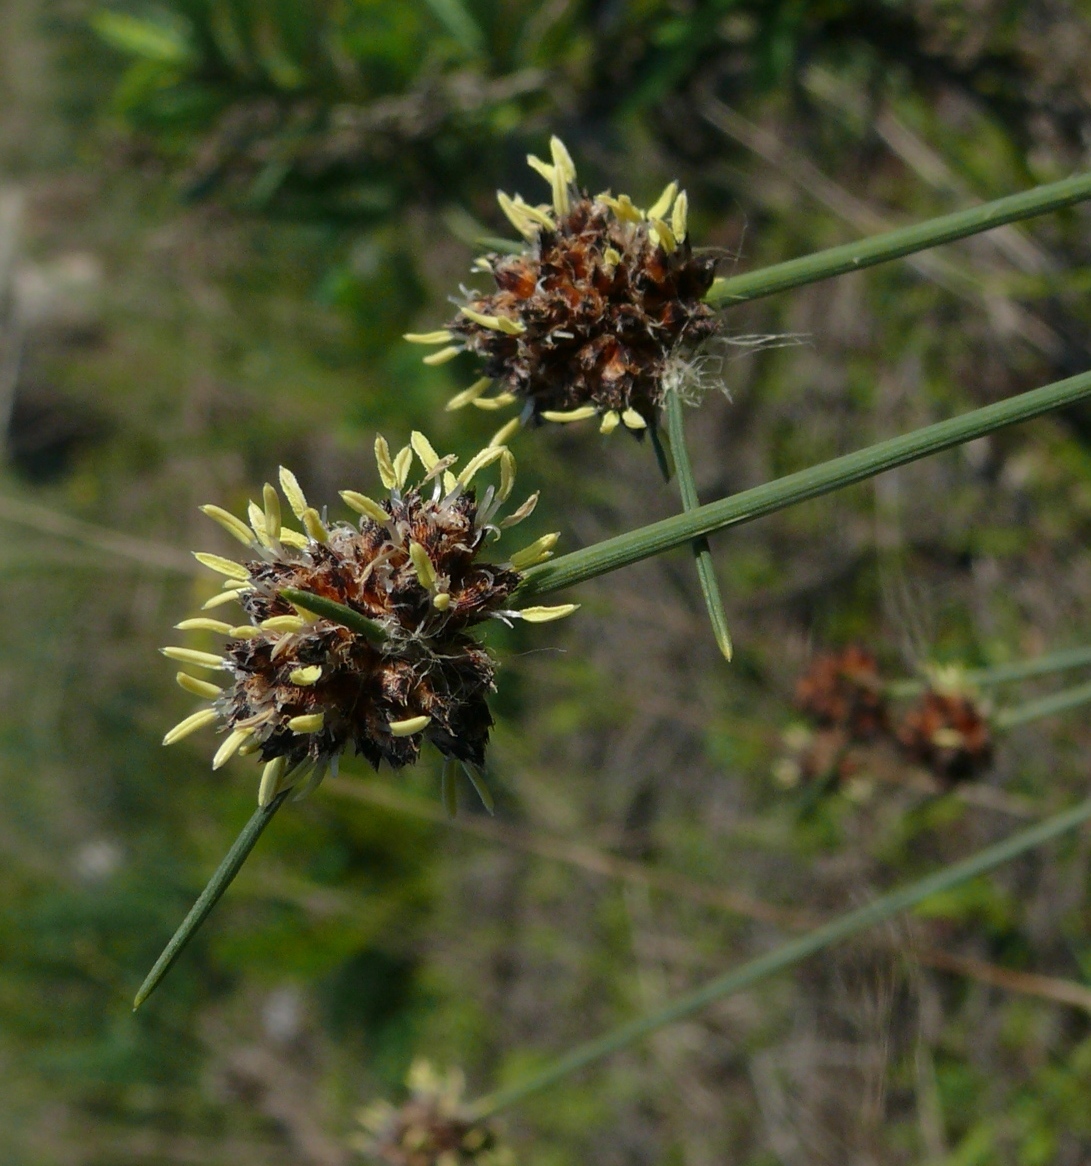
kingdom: Plantae
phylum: Tracheophyta
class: Liliopsida
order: Poales
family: Cyperaceae
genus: Ficinia
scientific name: Ficinia paradoxa
